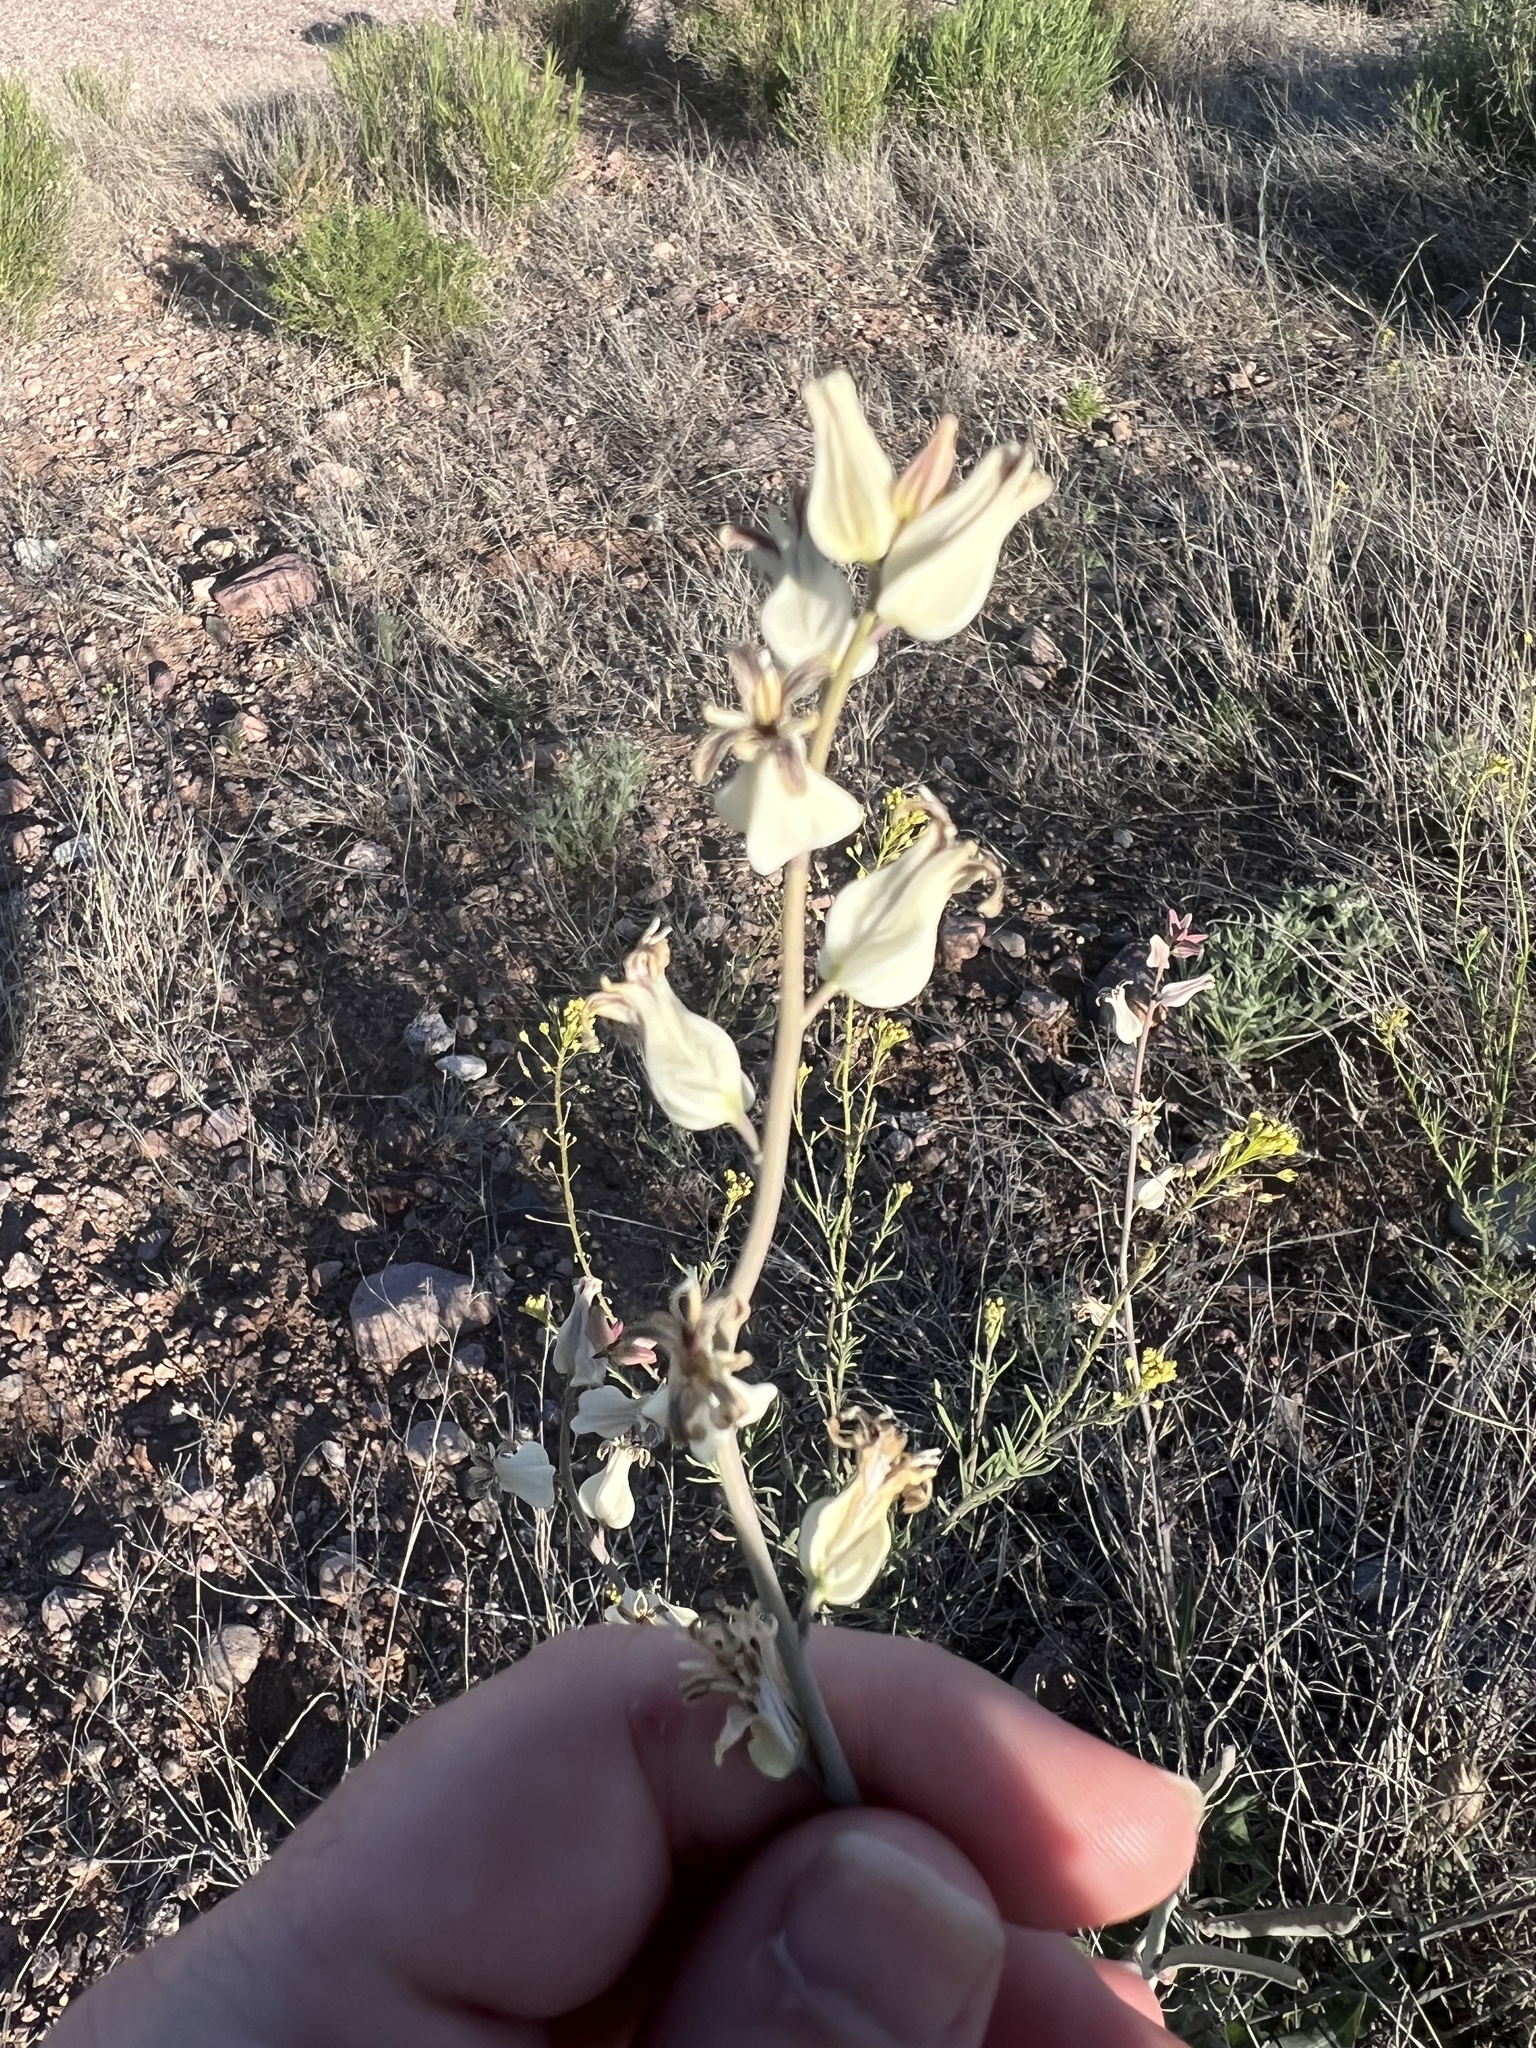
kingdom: Plantae
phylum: Tracheophyta
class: Magnoliopsida
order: Brassicales
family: Brassicaceae
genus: Streptanthus
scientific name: Streptanthus carinatus
